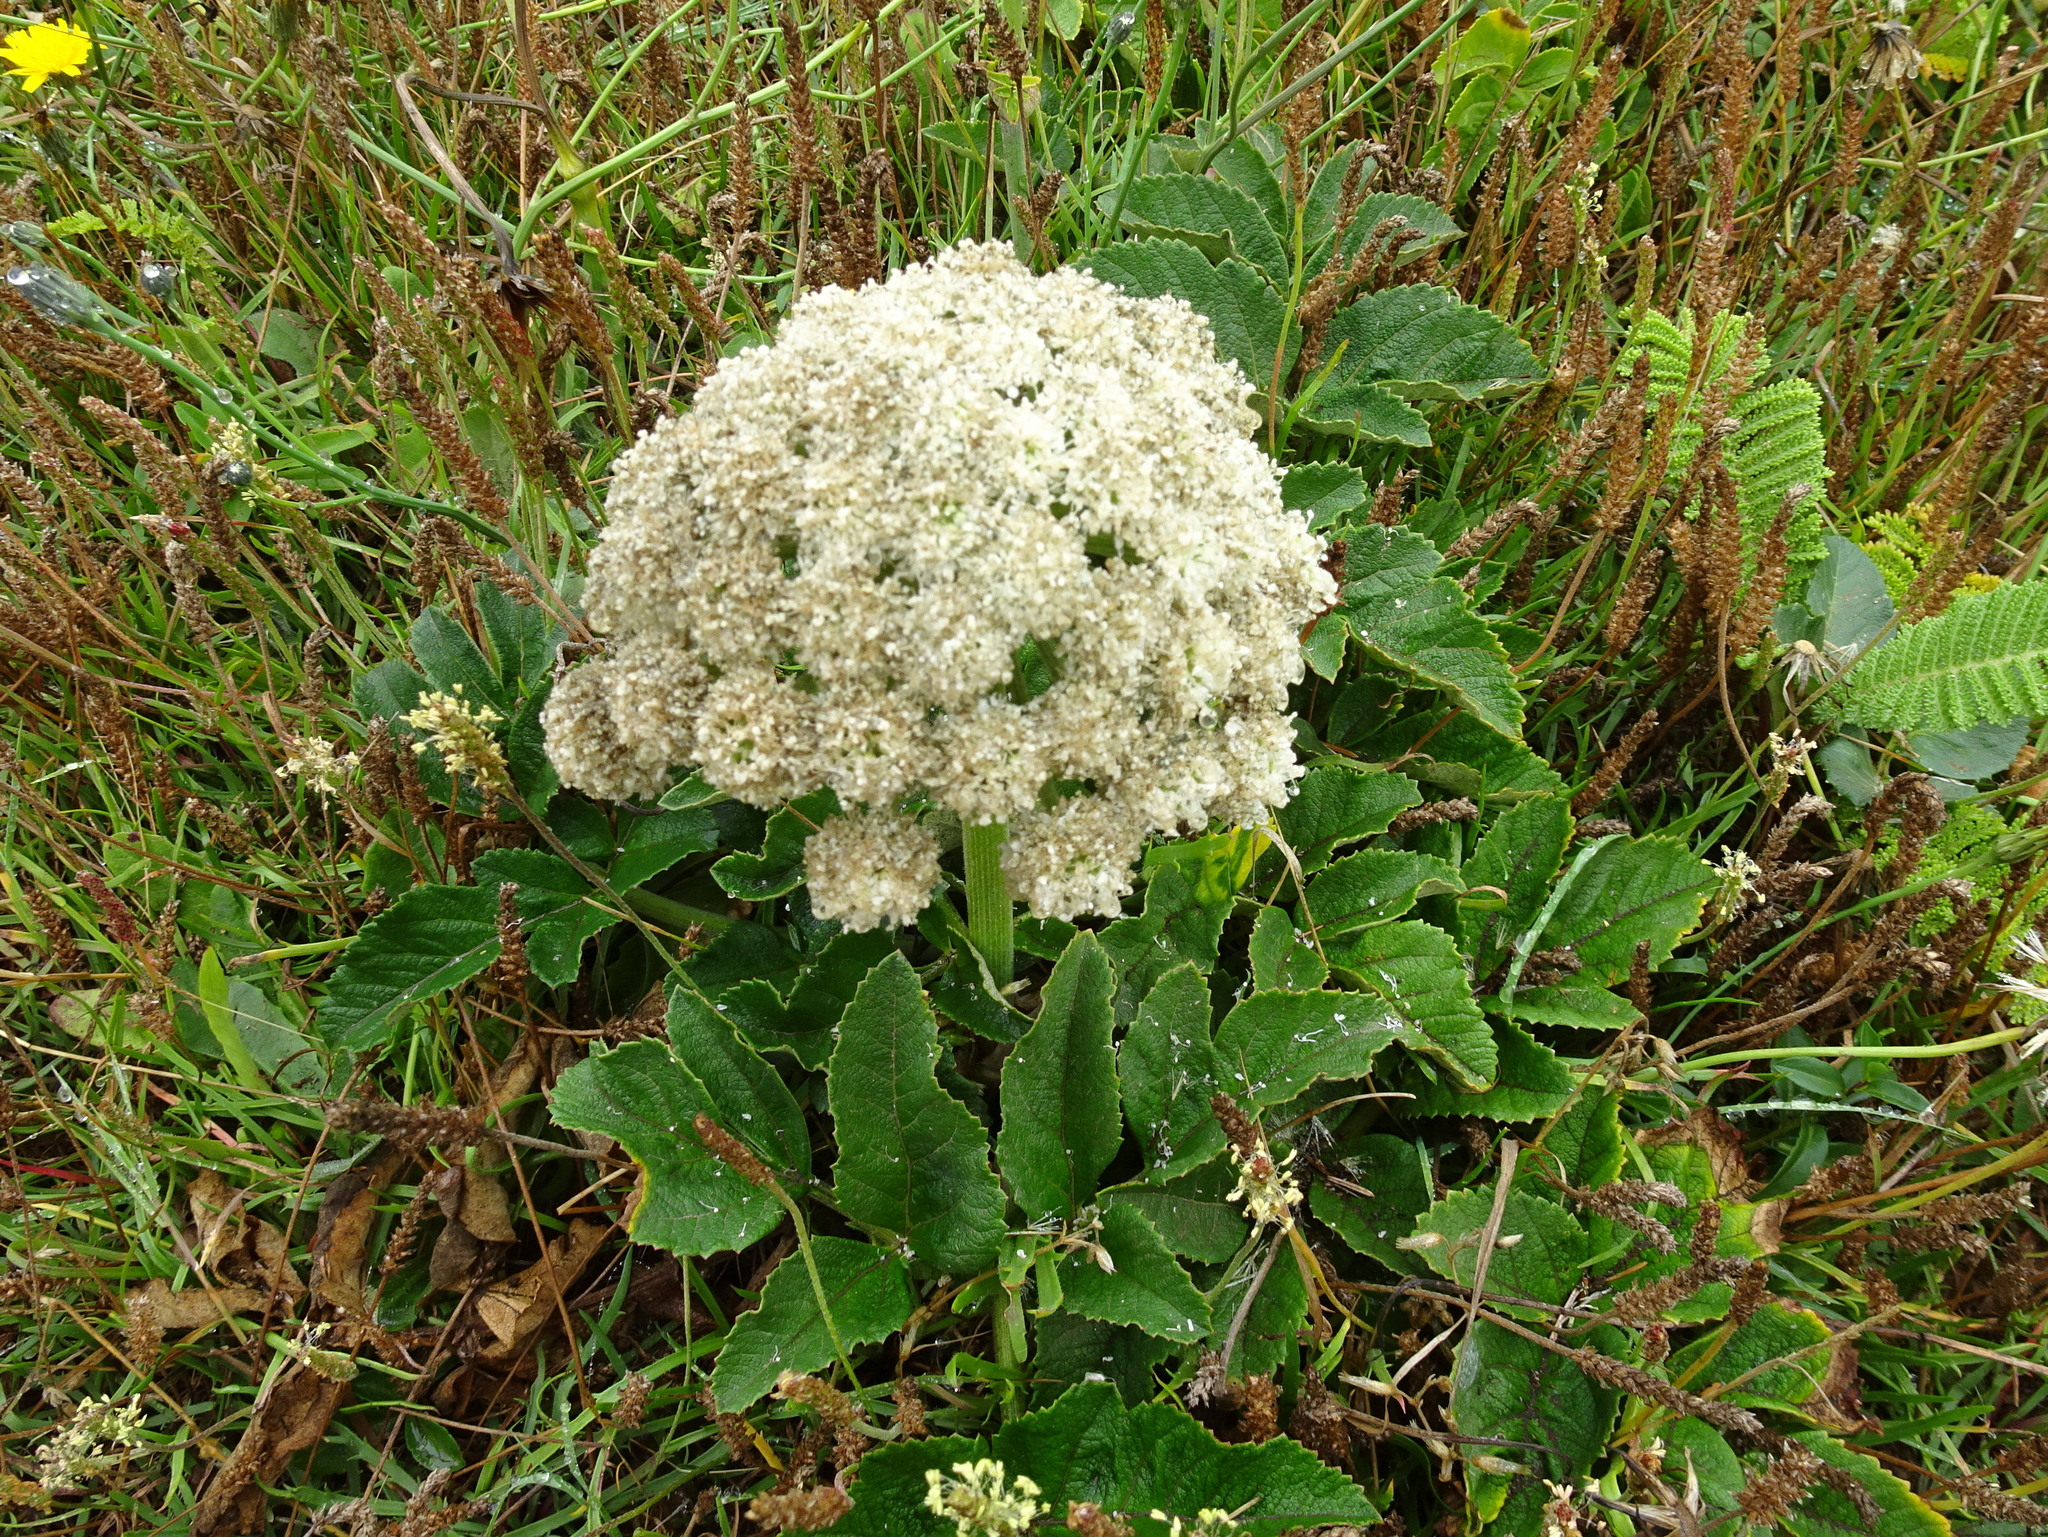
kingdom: Plantae
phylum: Tracheophyta
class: Magnoliopsida
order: Apiales
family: Apiaceae
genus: Angelica
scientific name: Angelica hendersonii
